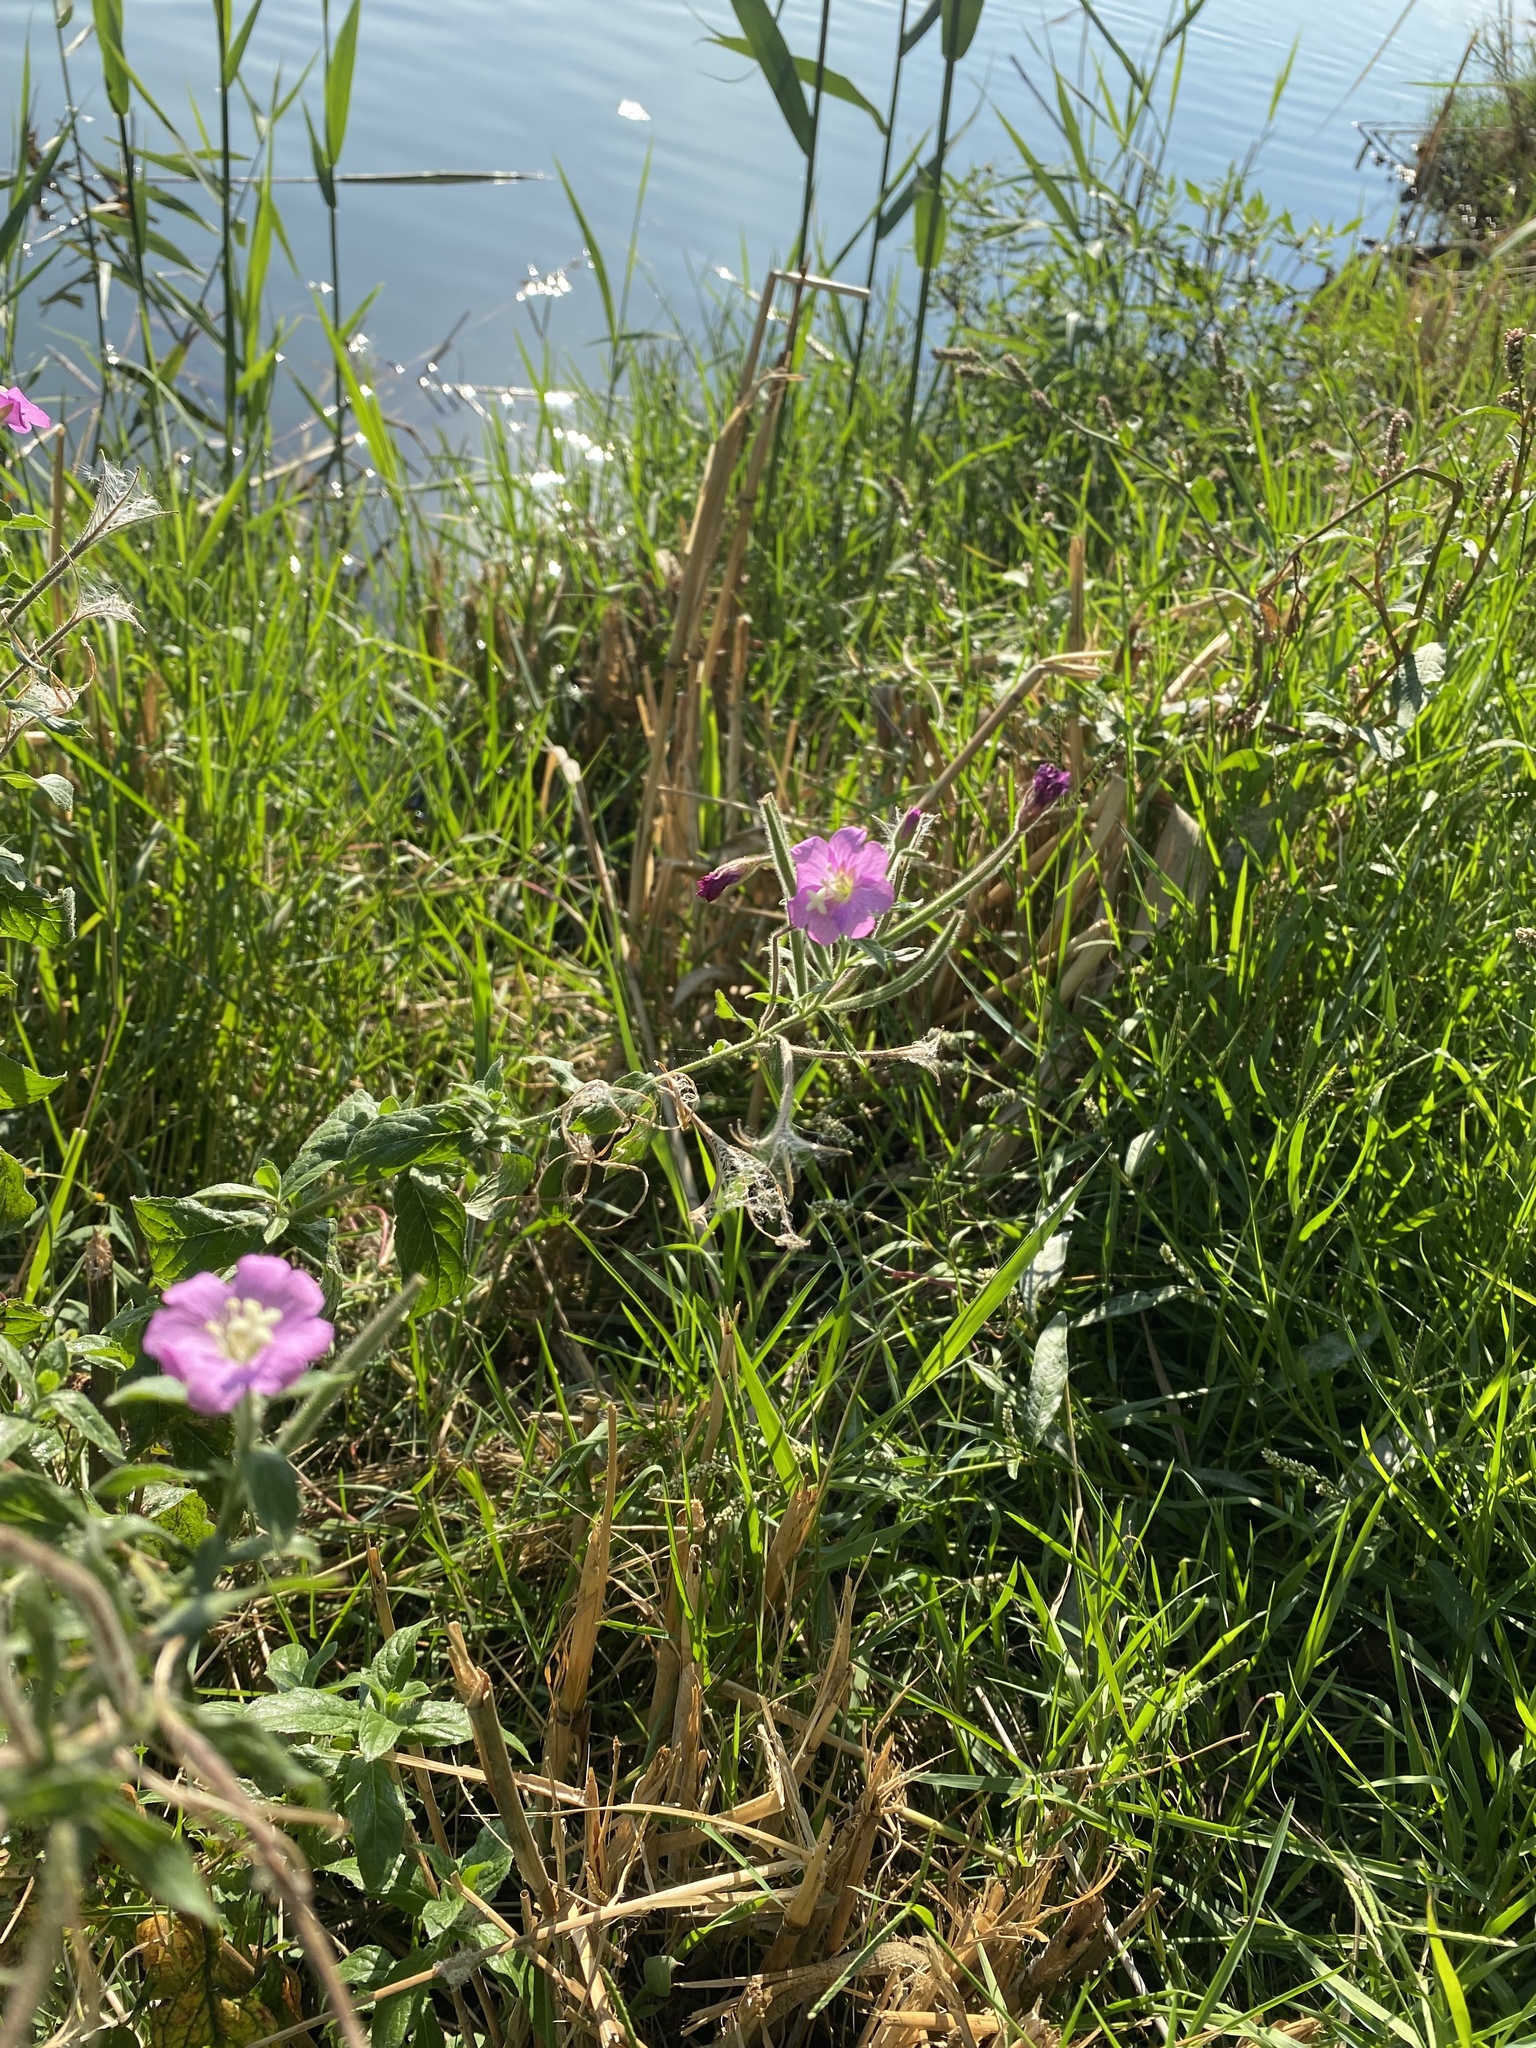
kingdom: Plantae
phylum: Tracheophyta
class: Magnoliopsida
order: Myrtales
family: Onagraceae
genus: Epilobium
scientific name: Epilobium hirsutum
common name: Great willowherb
